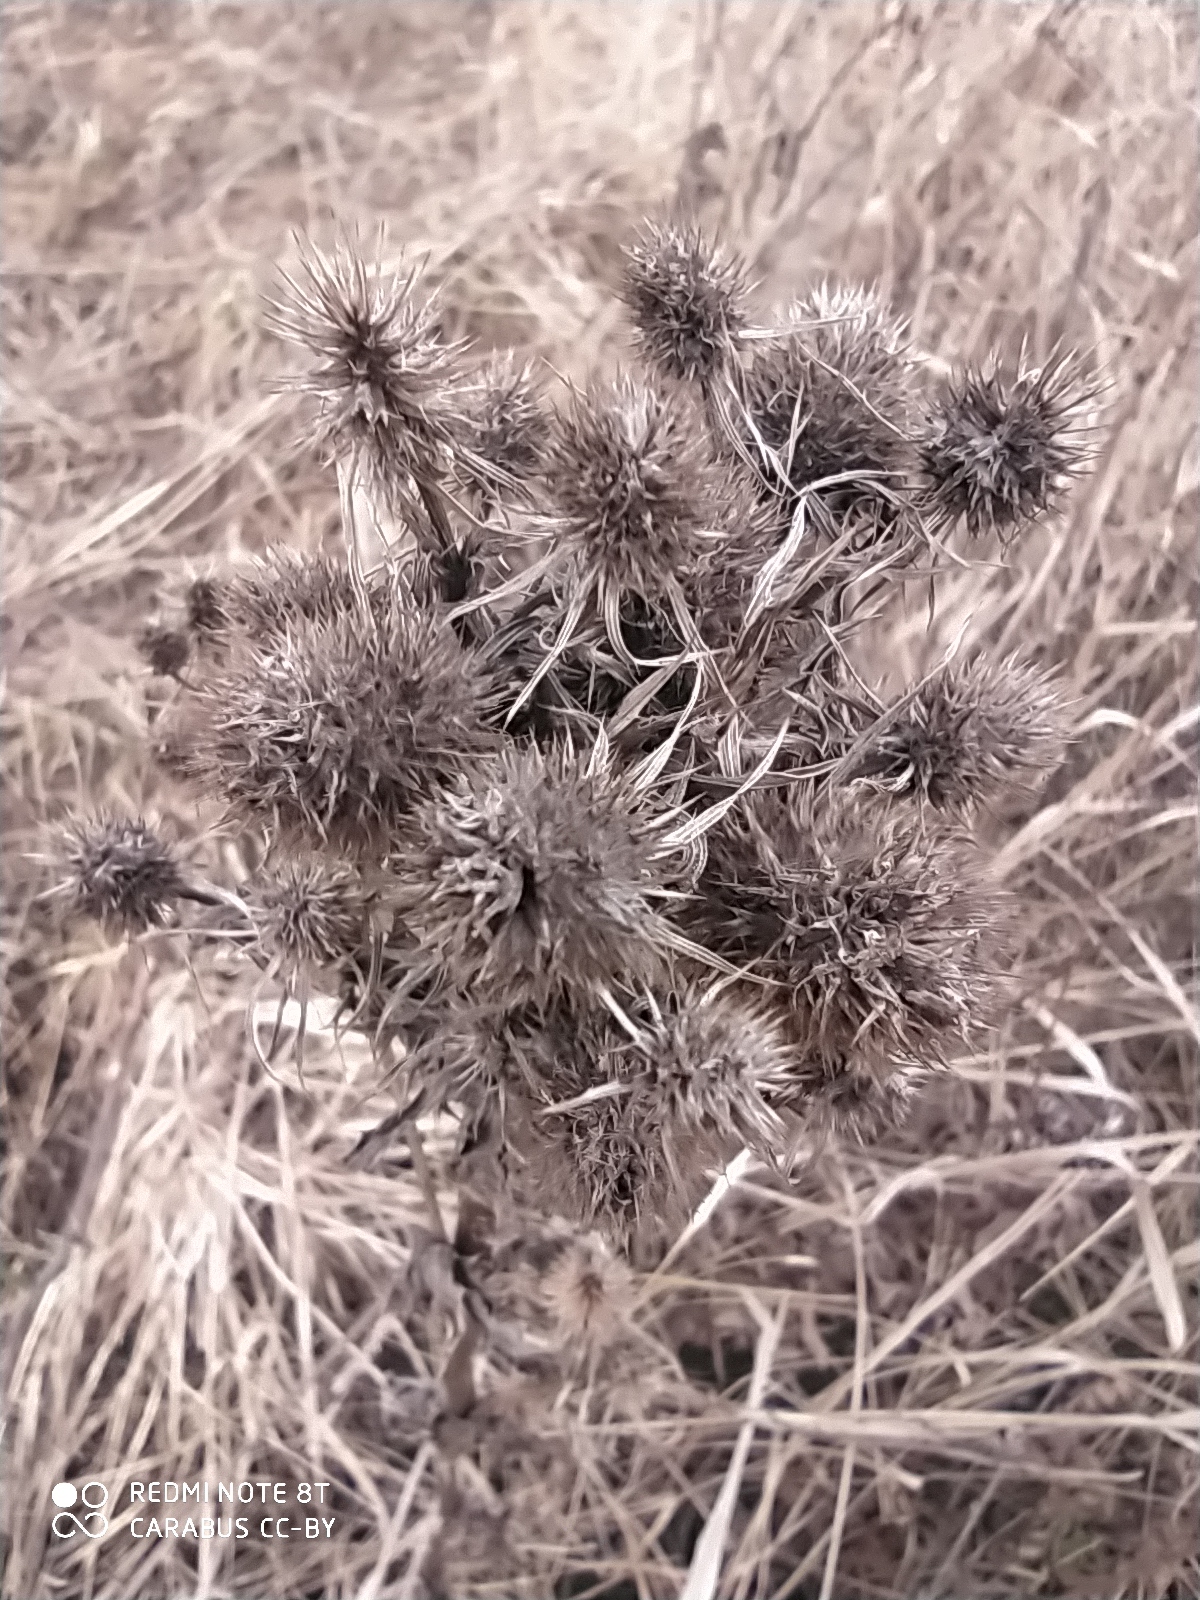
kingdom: Plantae
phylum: Tracheophyta
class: Magnoliopsida
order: Apiales
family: Apiaceae
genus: Eryngium
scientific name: Eryngium planum
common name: Blue eryngo
